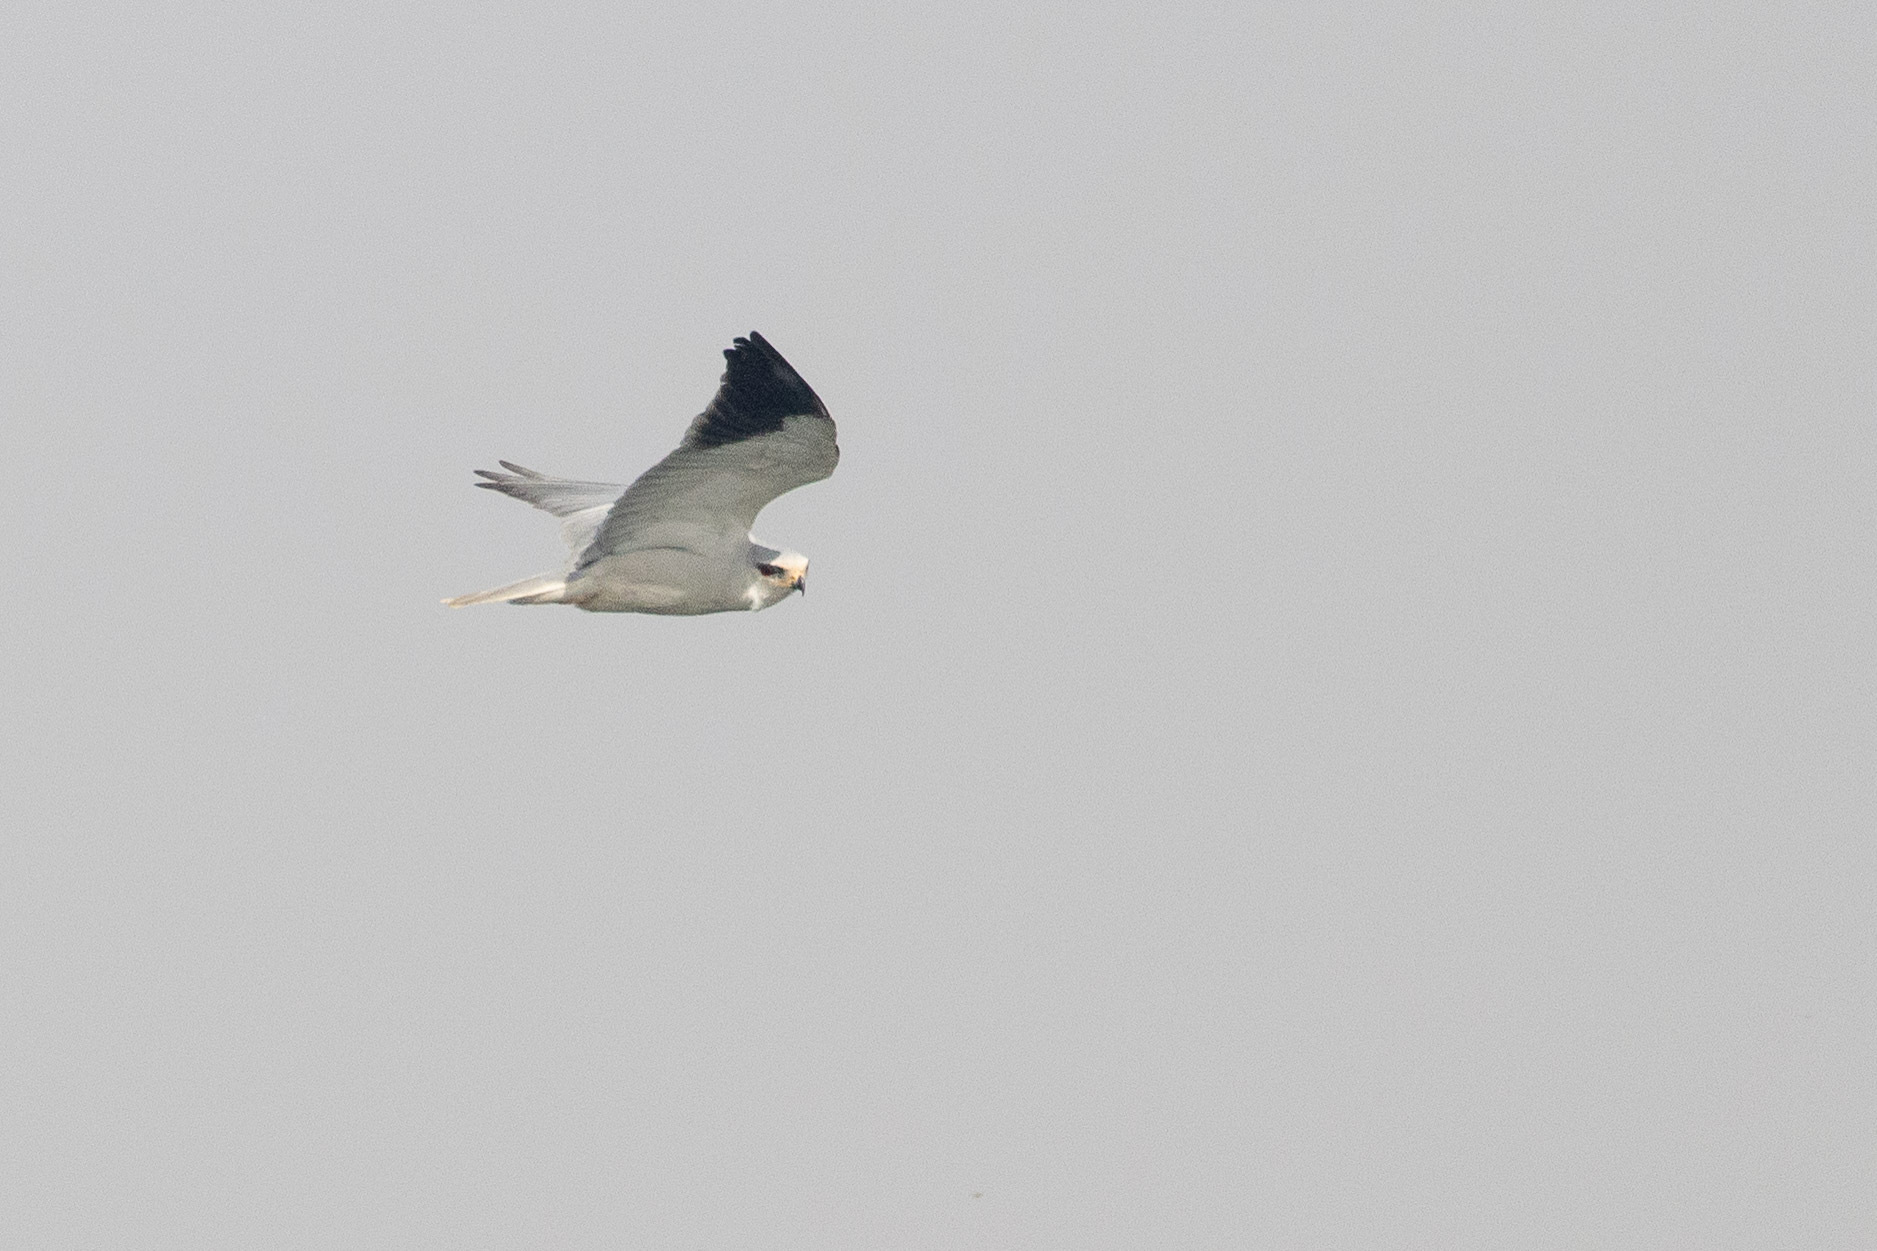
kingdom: Animalia
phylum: Chordata
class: Aves
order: Accipitriformes
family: Accipitridae
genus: Elanus
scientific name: Elanus caeruleus
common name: Black-winged kite
